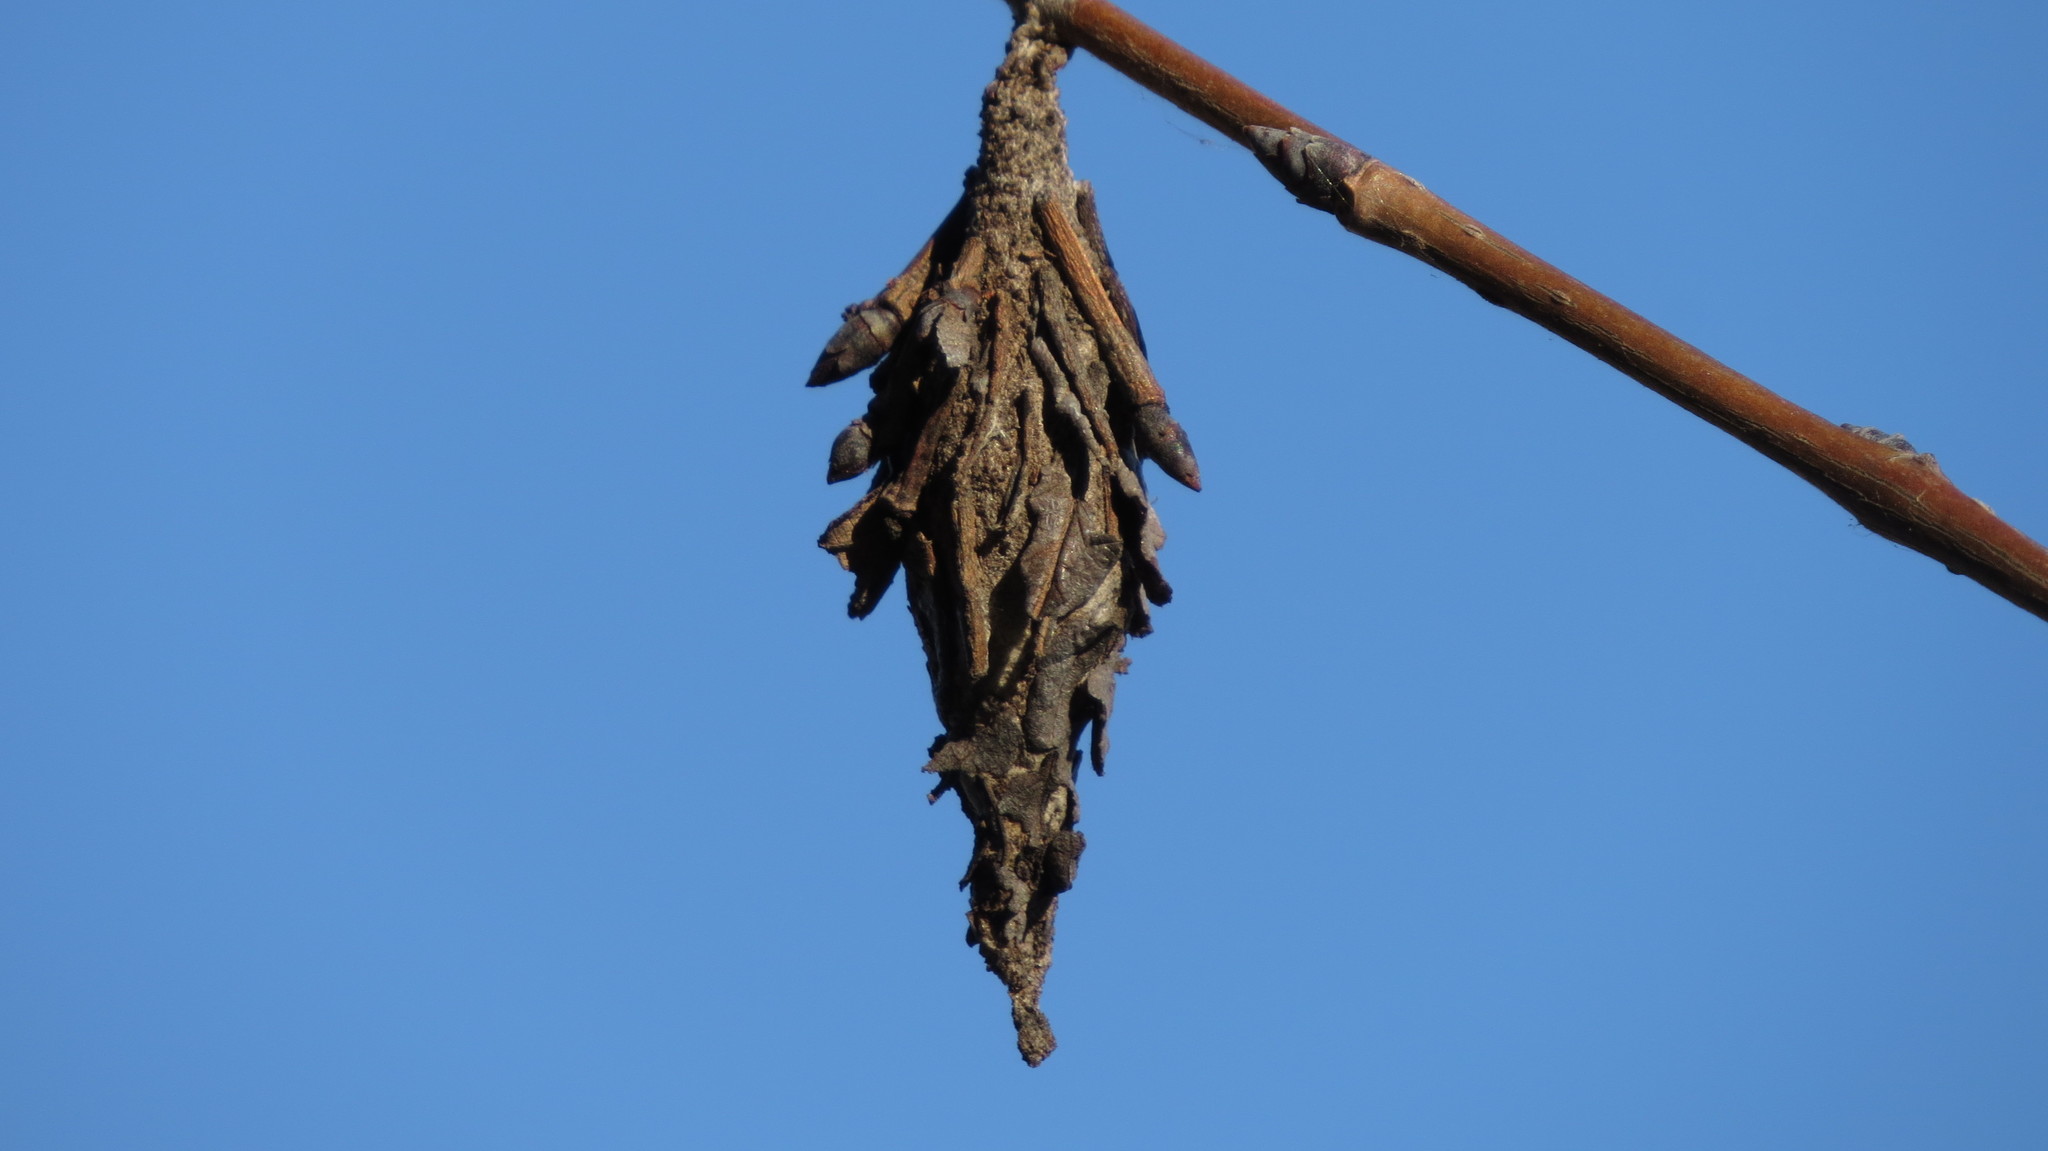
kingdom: Animalia
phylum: Arthropoda
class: Insecta
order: Lepidoptera
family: Psychidae
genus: Thyridopteryx
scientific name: Thyridopteryx ephemeraeformis
